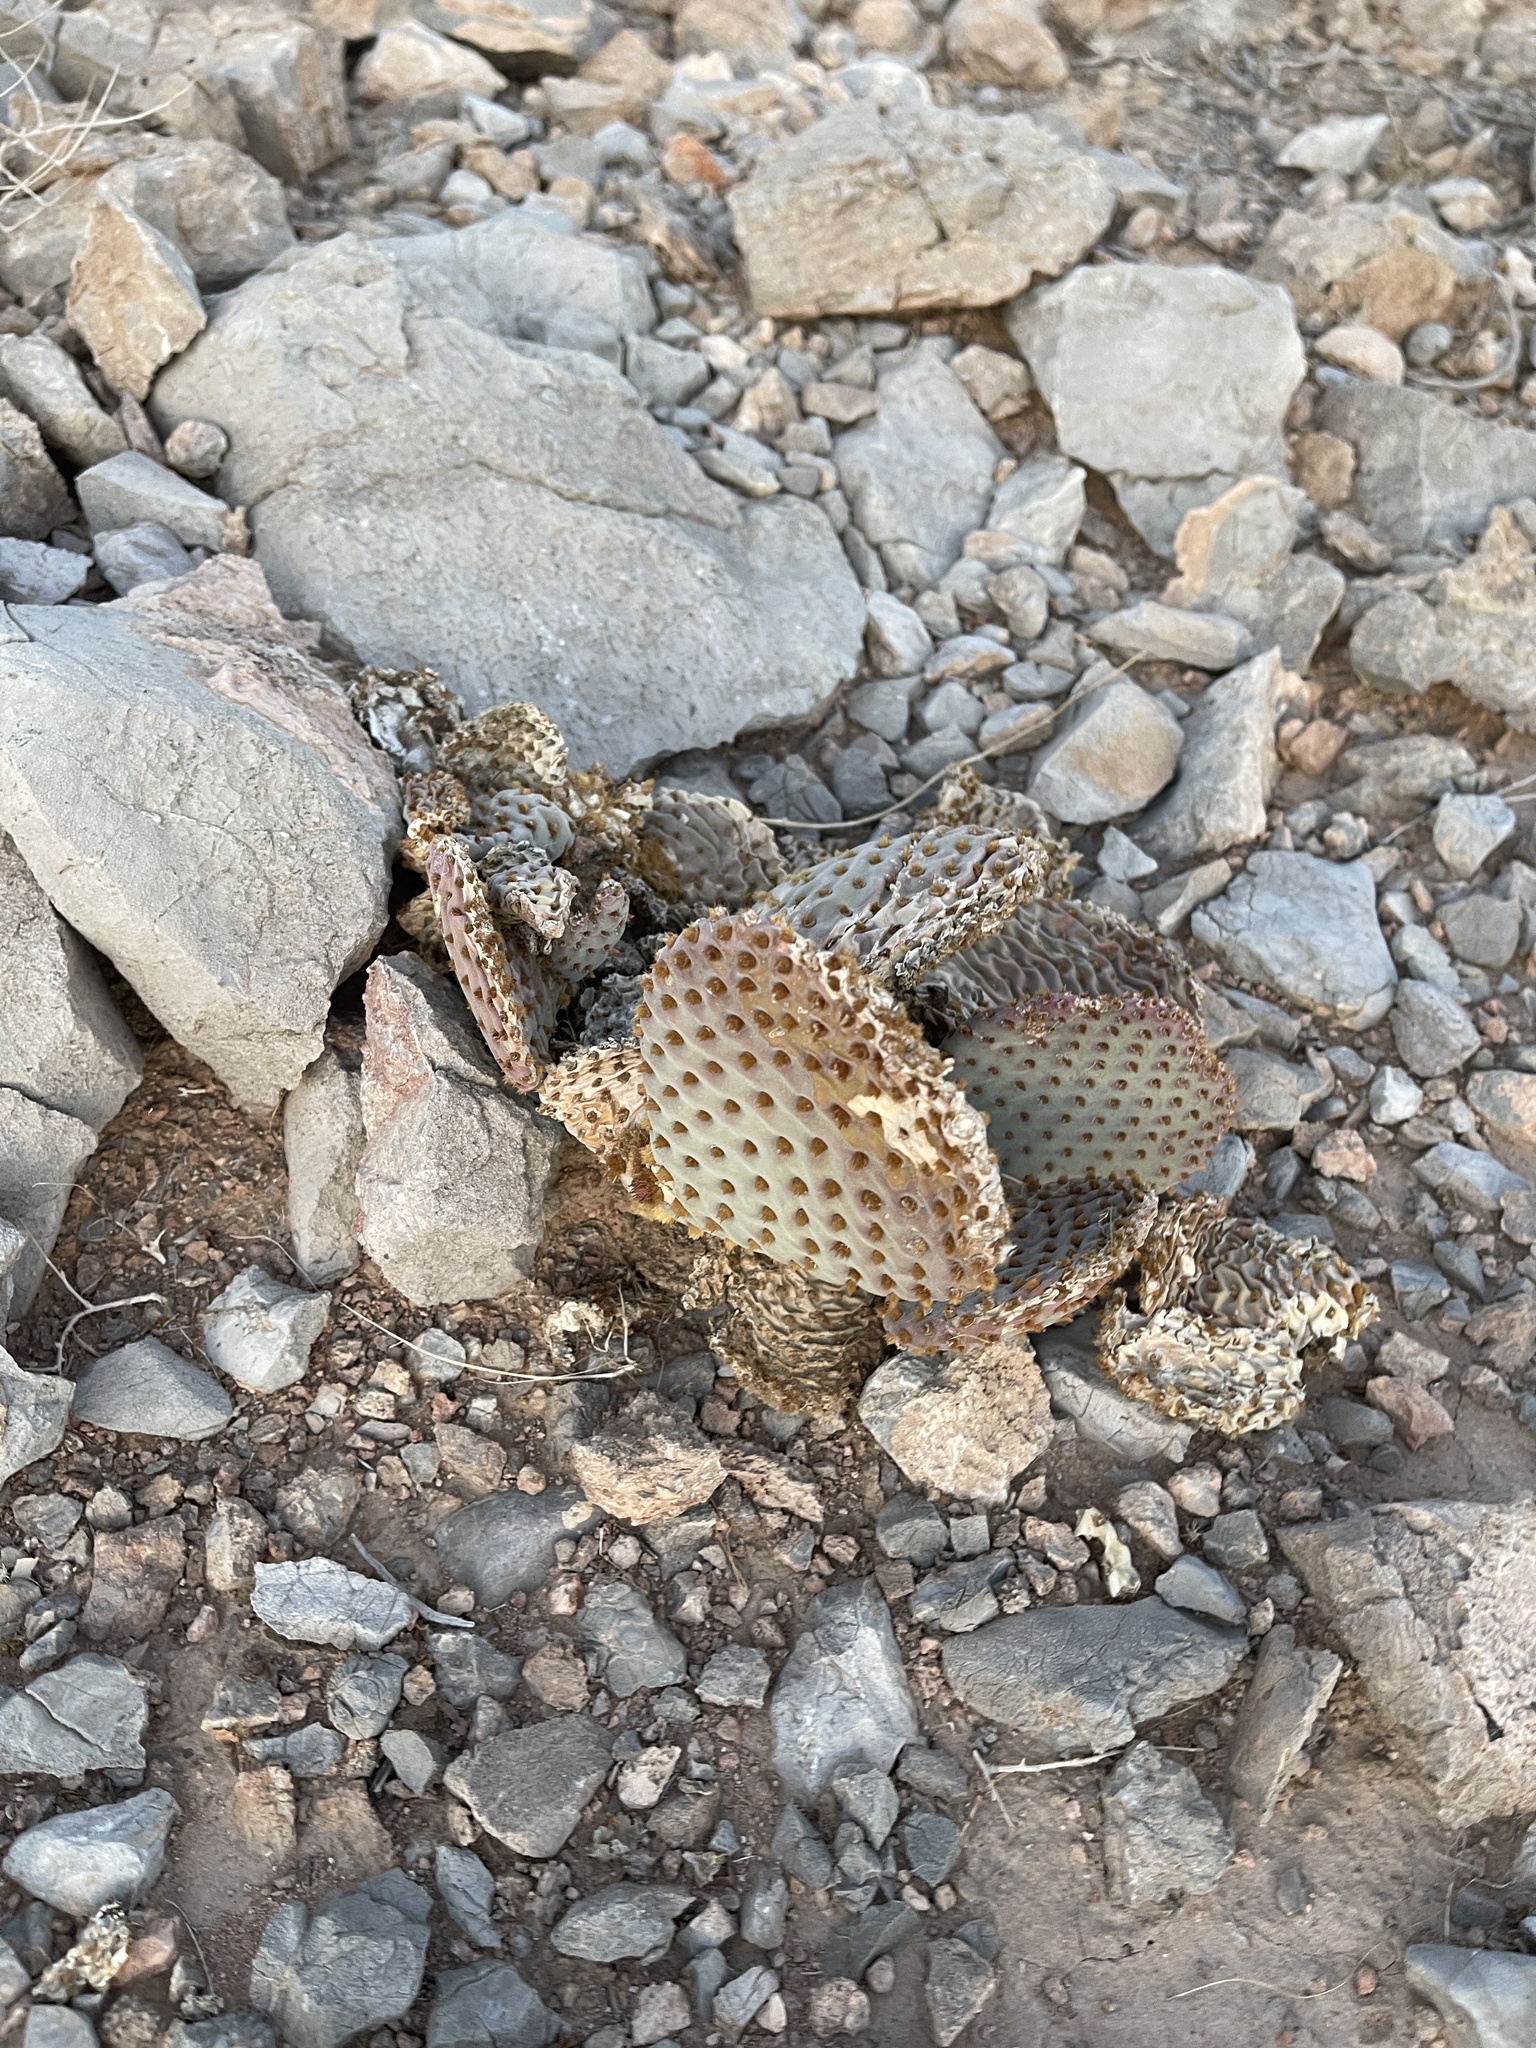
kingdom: Plantae
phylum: Tracheophyta
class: Magnoliopsida
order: Caryophyllales
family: Cactaceae
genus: Opuntia
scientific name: Opuntia basilaris
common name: Beavertail prickly-pear
